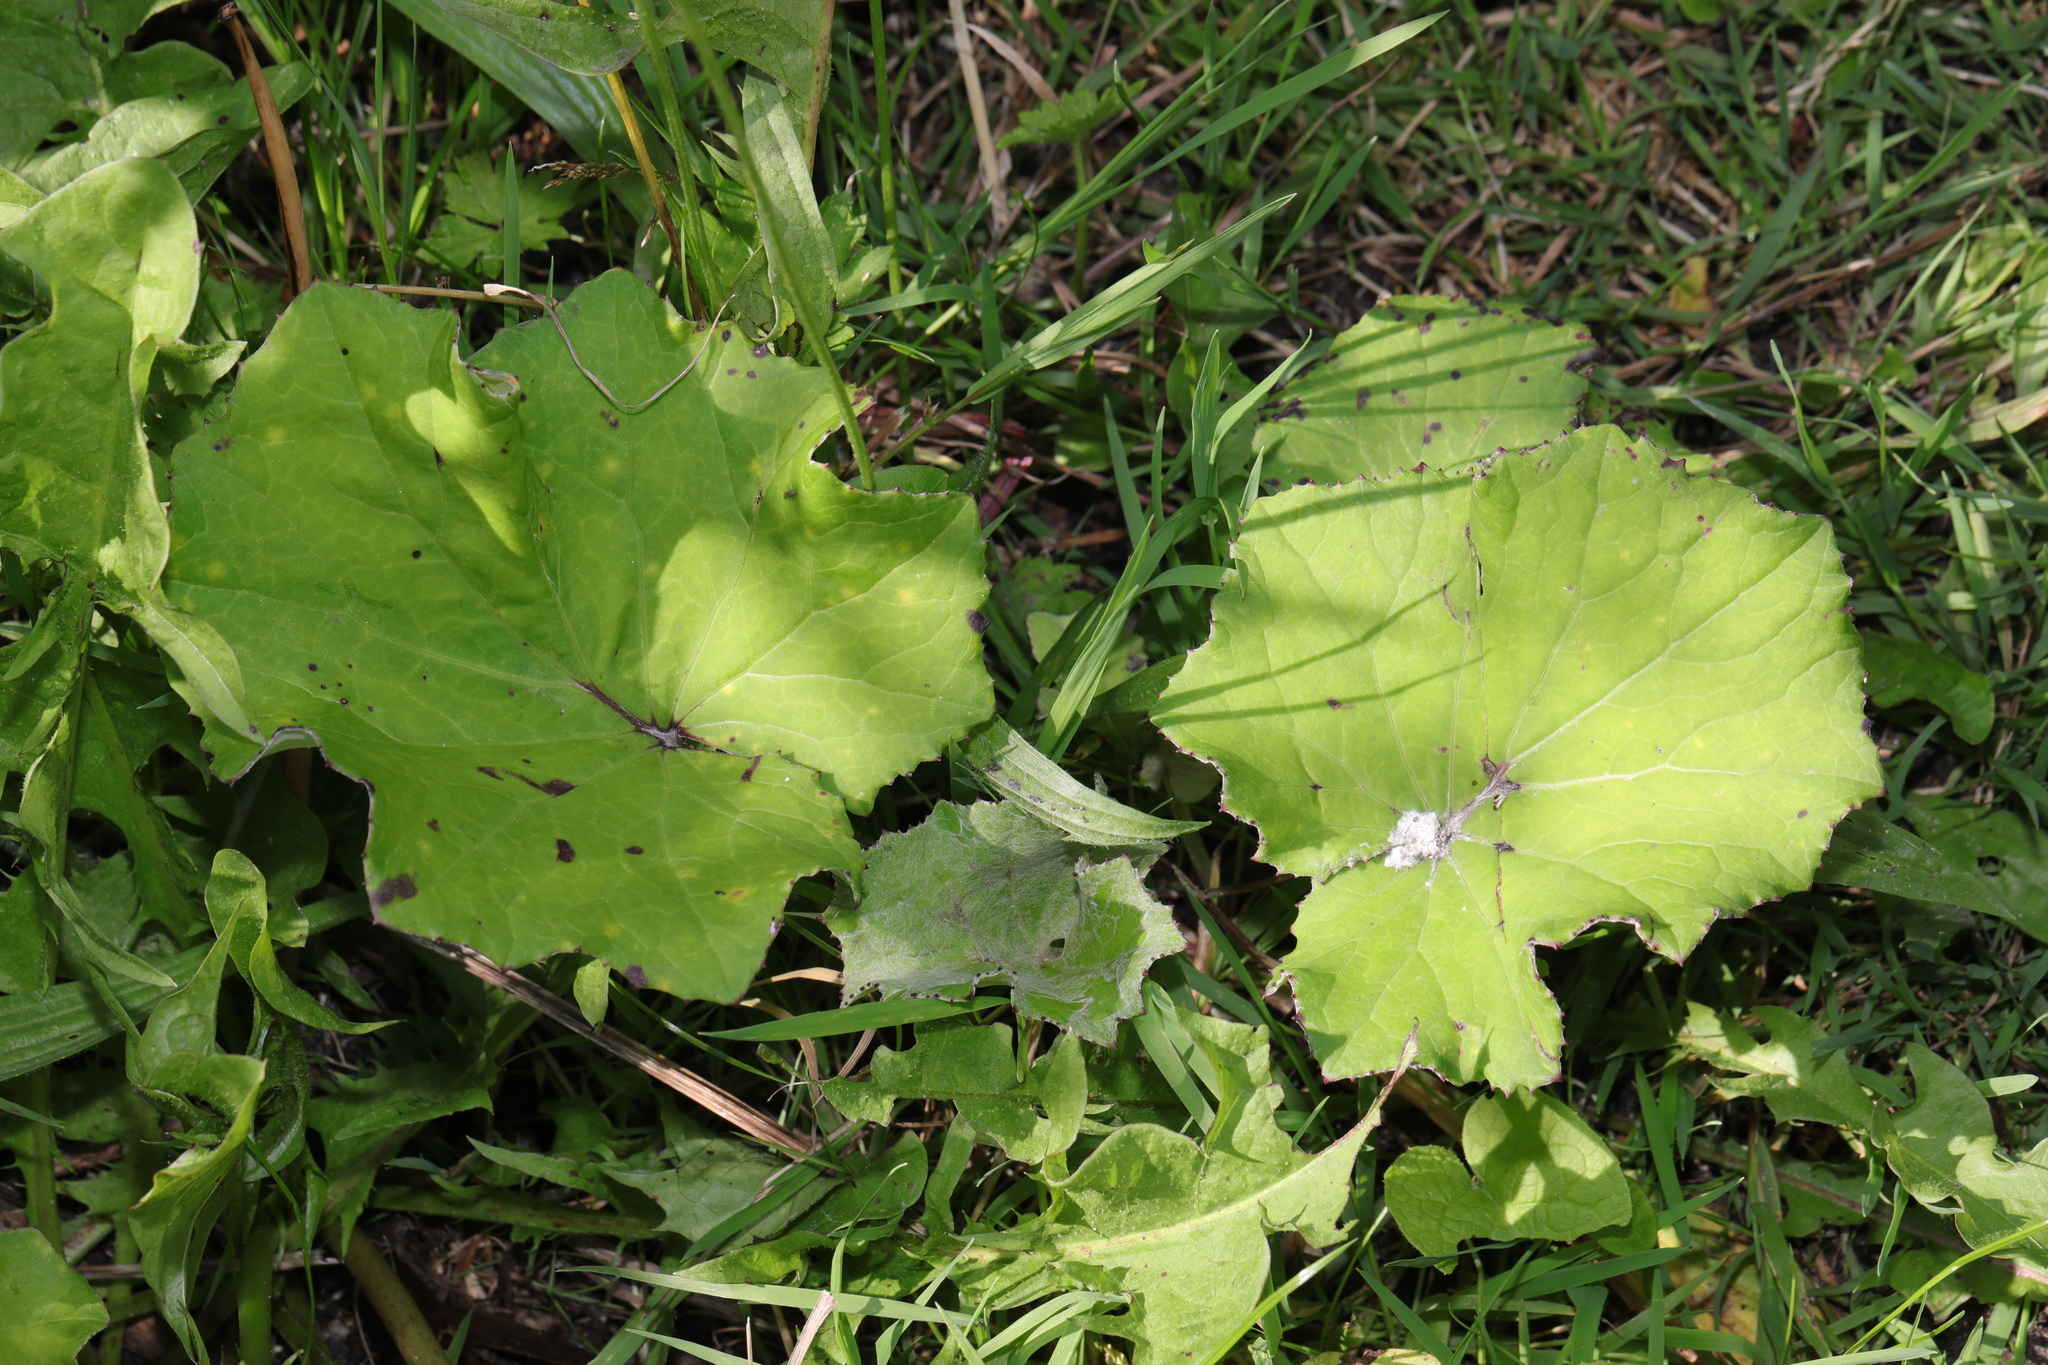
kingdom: Plantae
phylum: Tracheophyta
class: Magnoliopsida
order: Asterales
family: Asteraceae
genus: Tussilago
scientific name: Tussilago farfara
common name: Coltsfoot
